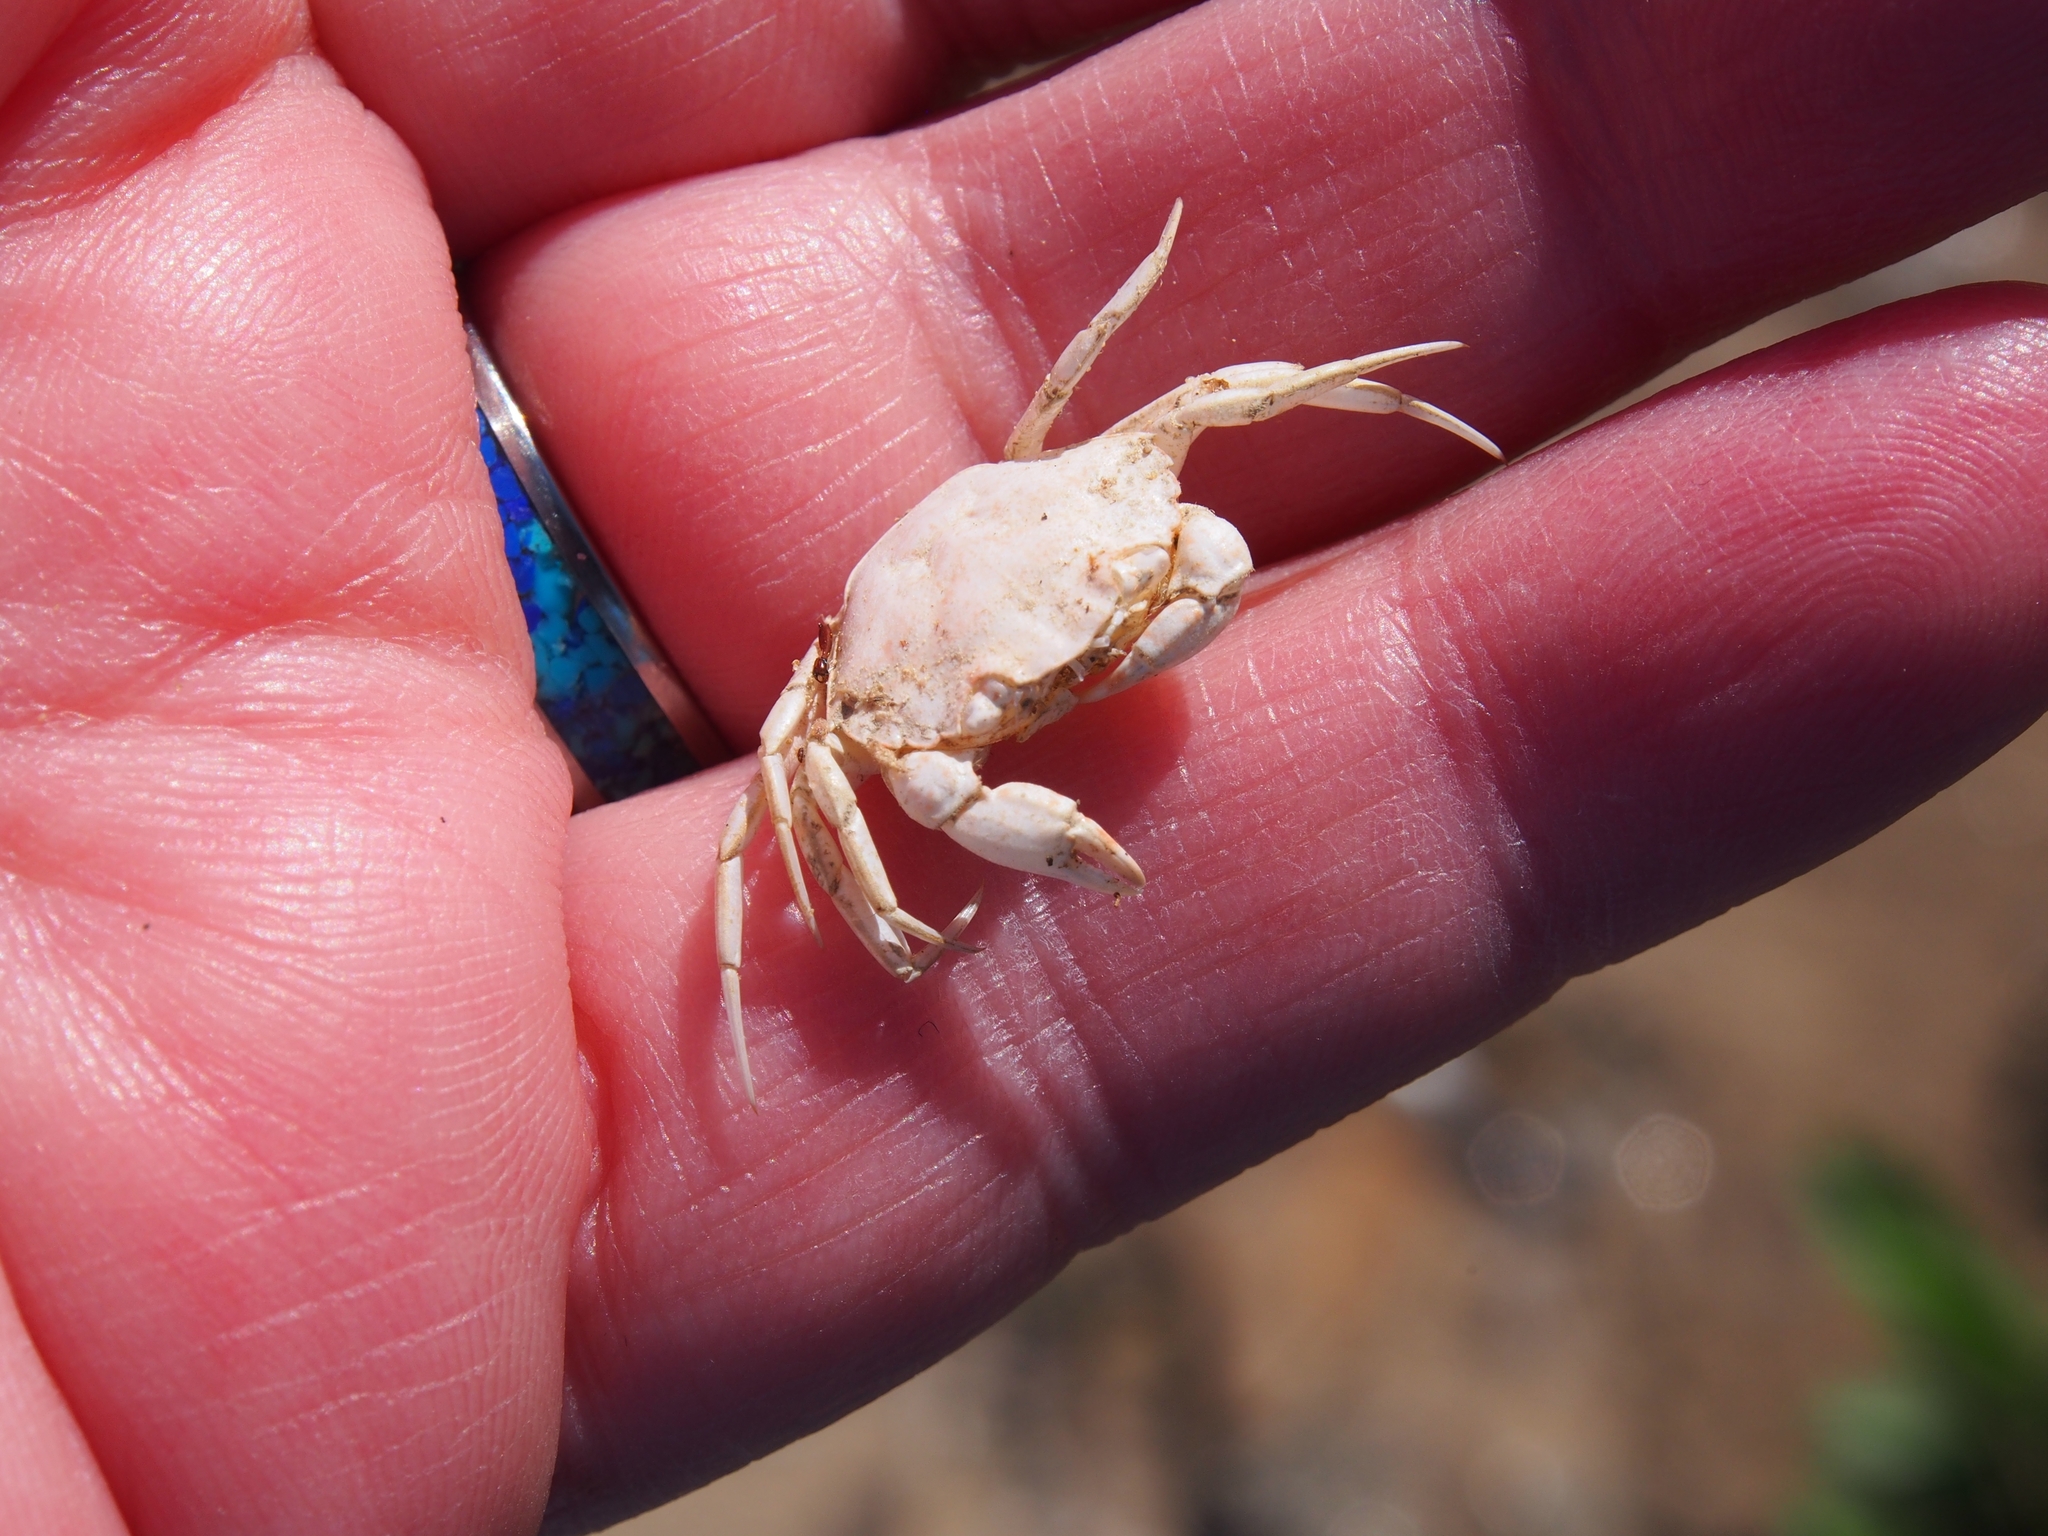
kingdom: Animalia
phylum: Arthropoda
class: Malacostraca
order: Decapoda
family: Carcinidae
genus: Carcinus
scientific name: Carcinus maenas
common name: European green crab
